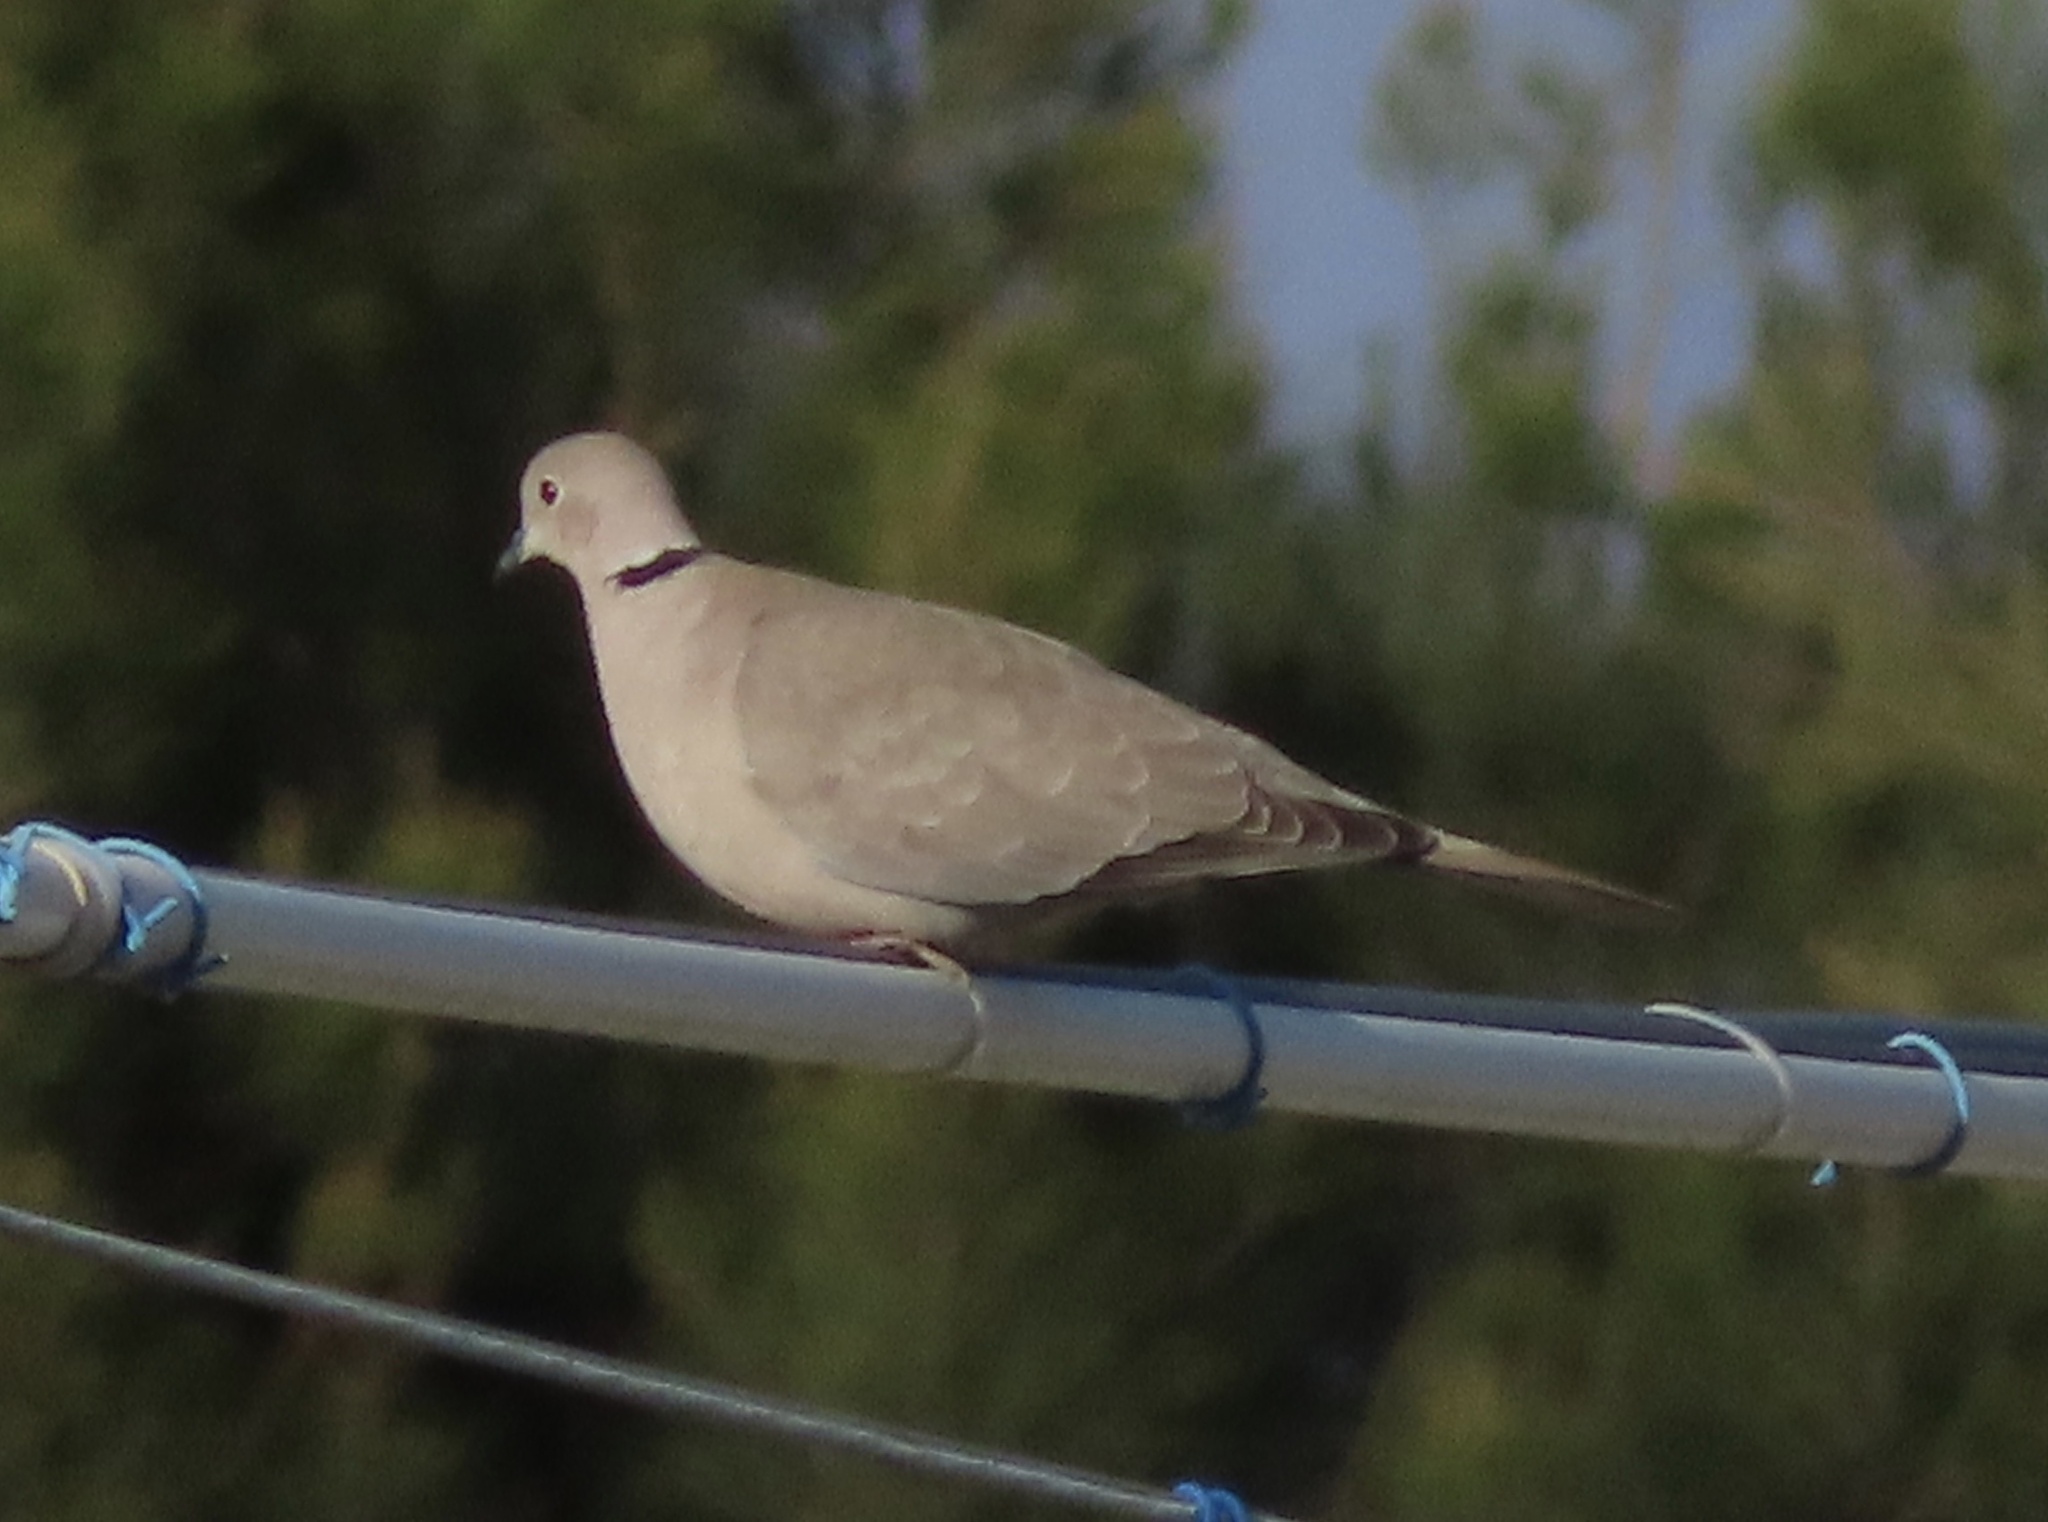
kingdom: Animalia
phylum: Chordata
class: Aves
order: Columbiformes
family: Columbidae
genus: Streptopelia
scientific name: Streptopelia decaocto
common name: Eurasian collared dove
